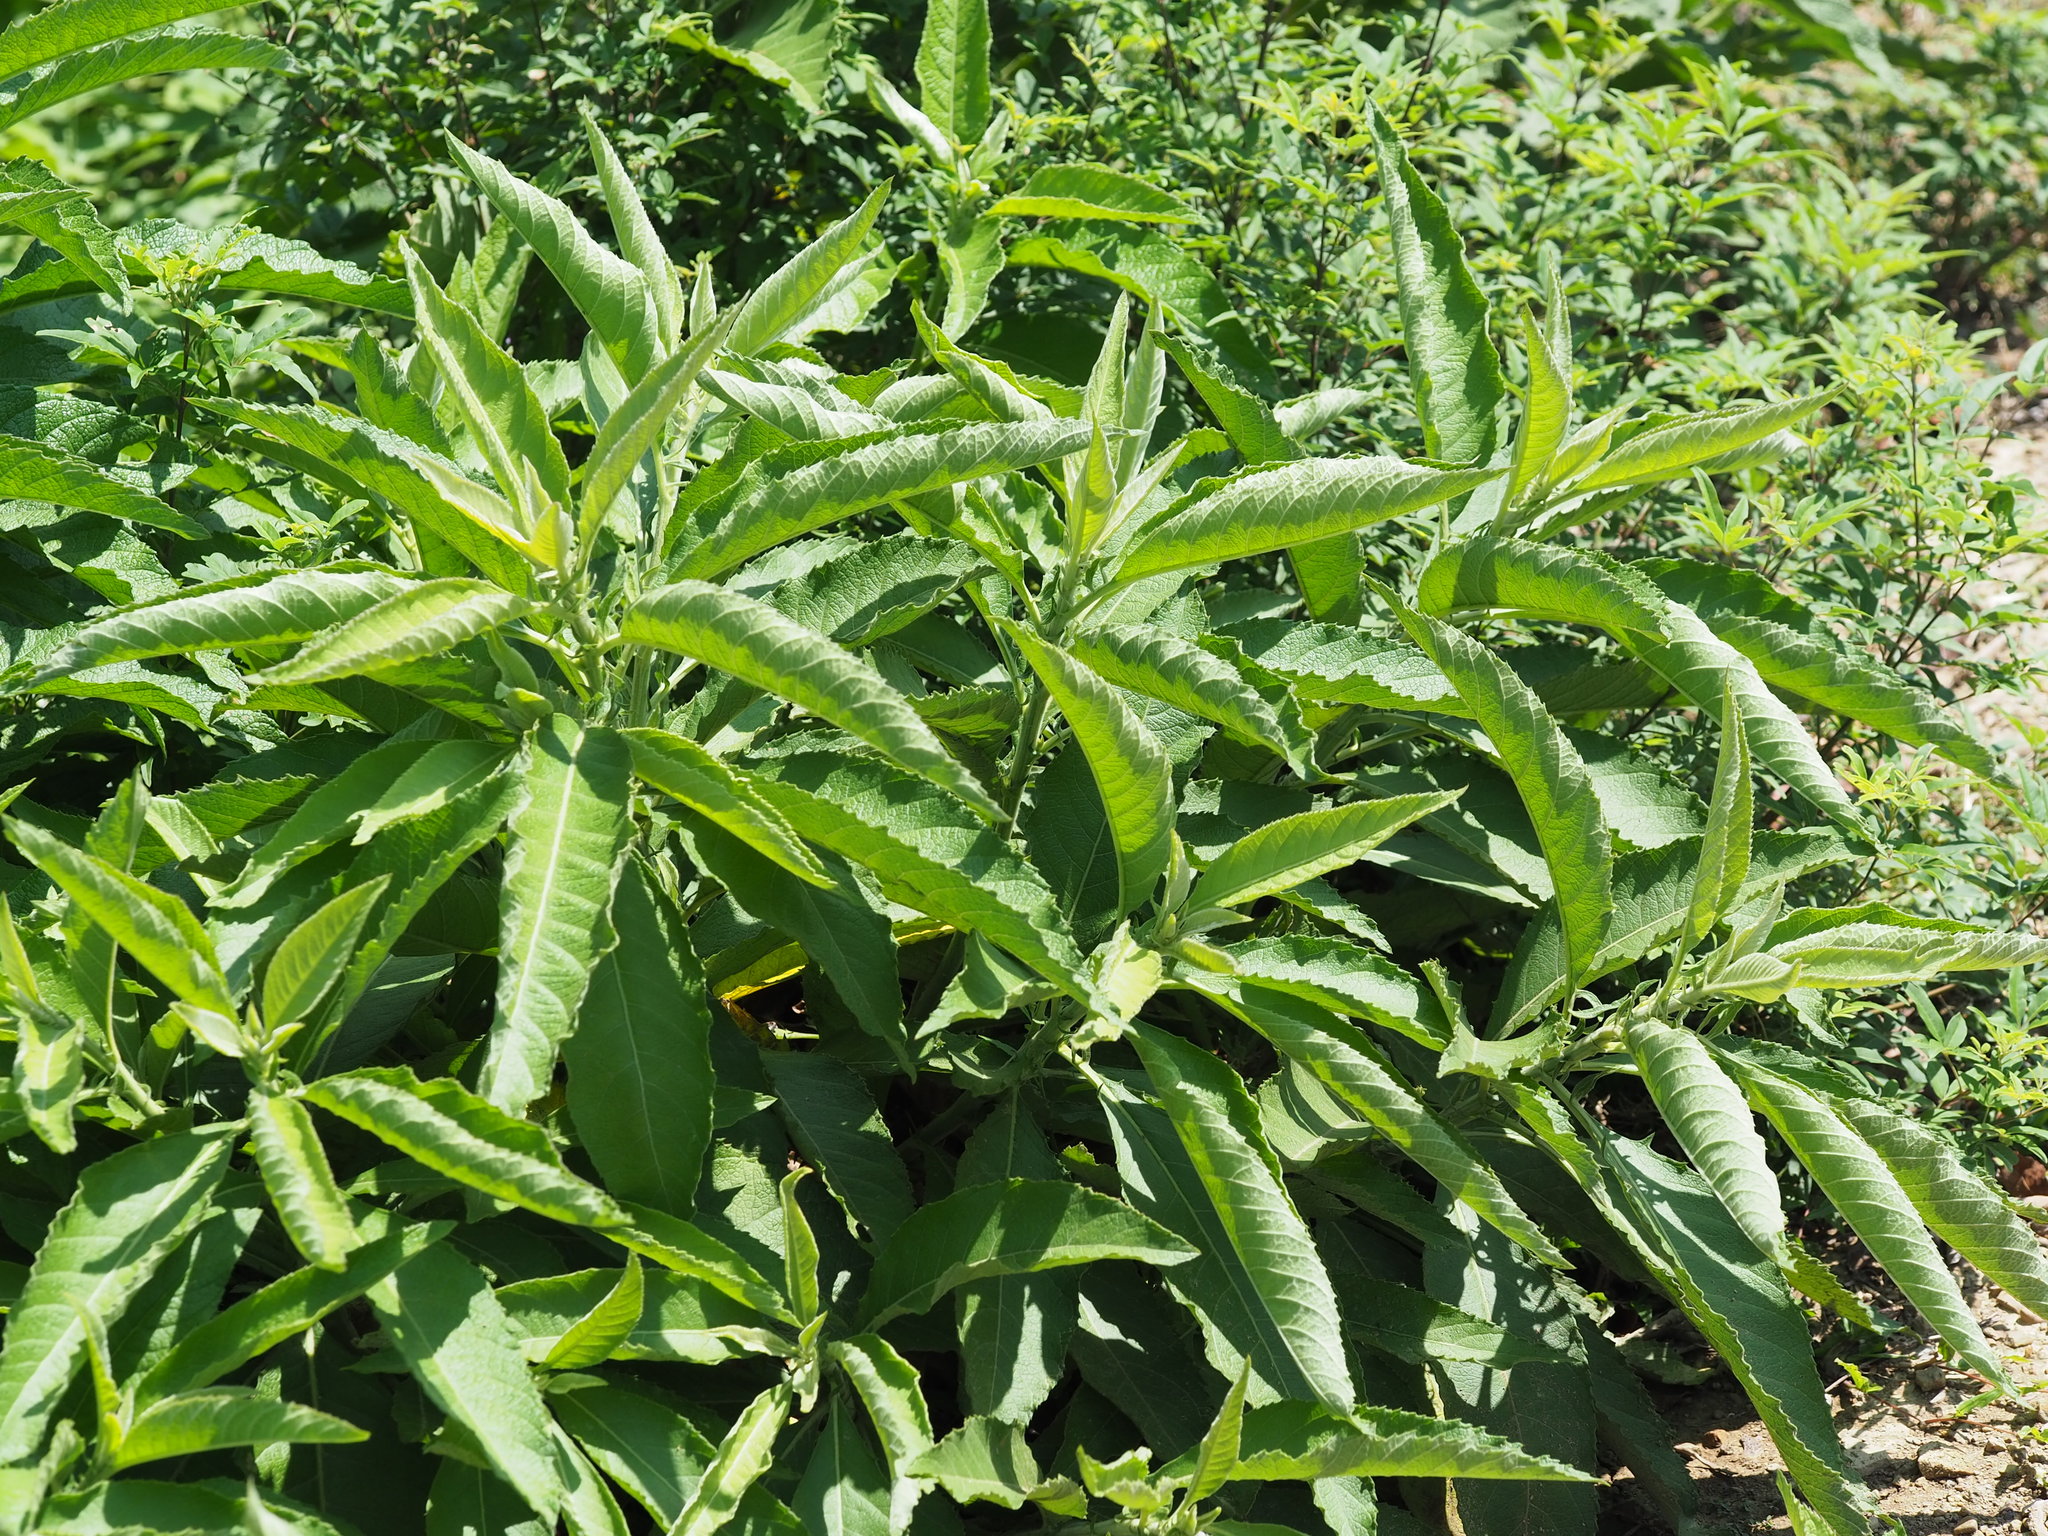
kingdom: Plantae
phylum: Tracheophyta
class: Magnoliopsida
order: Asterales
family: Asteraceae
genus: Blumea
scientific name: Blumea balsamifera
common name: Ngai camphor
